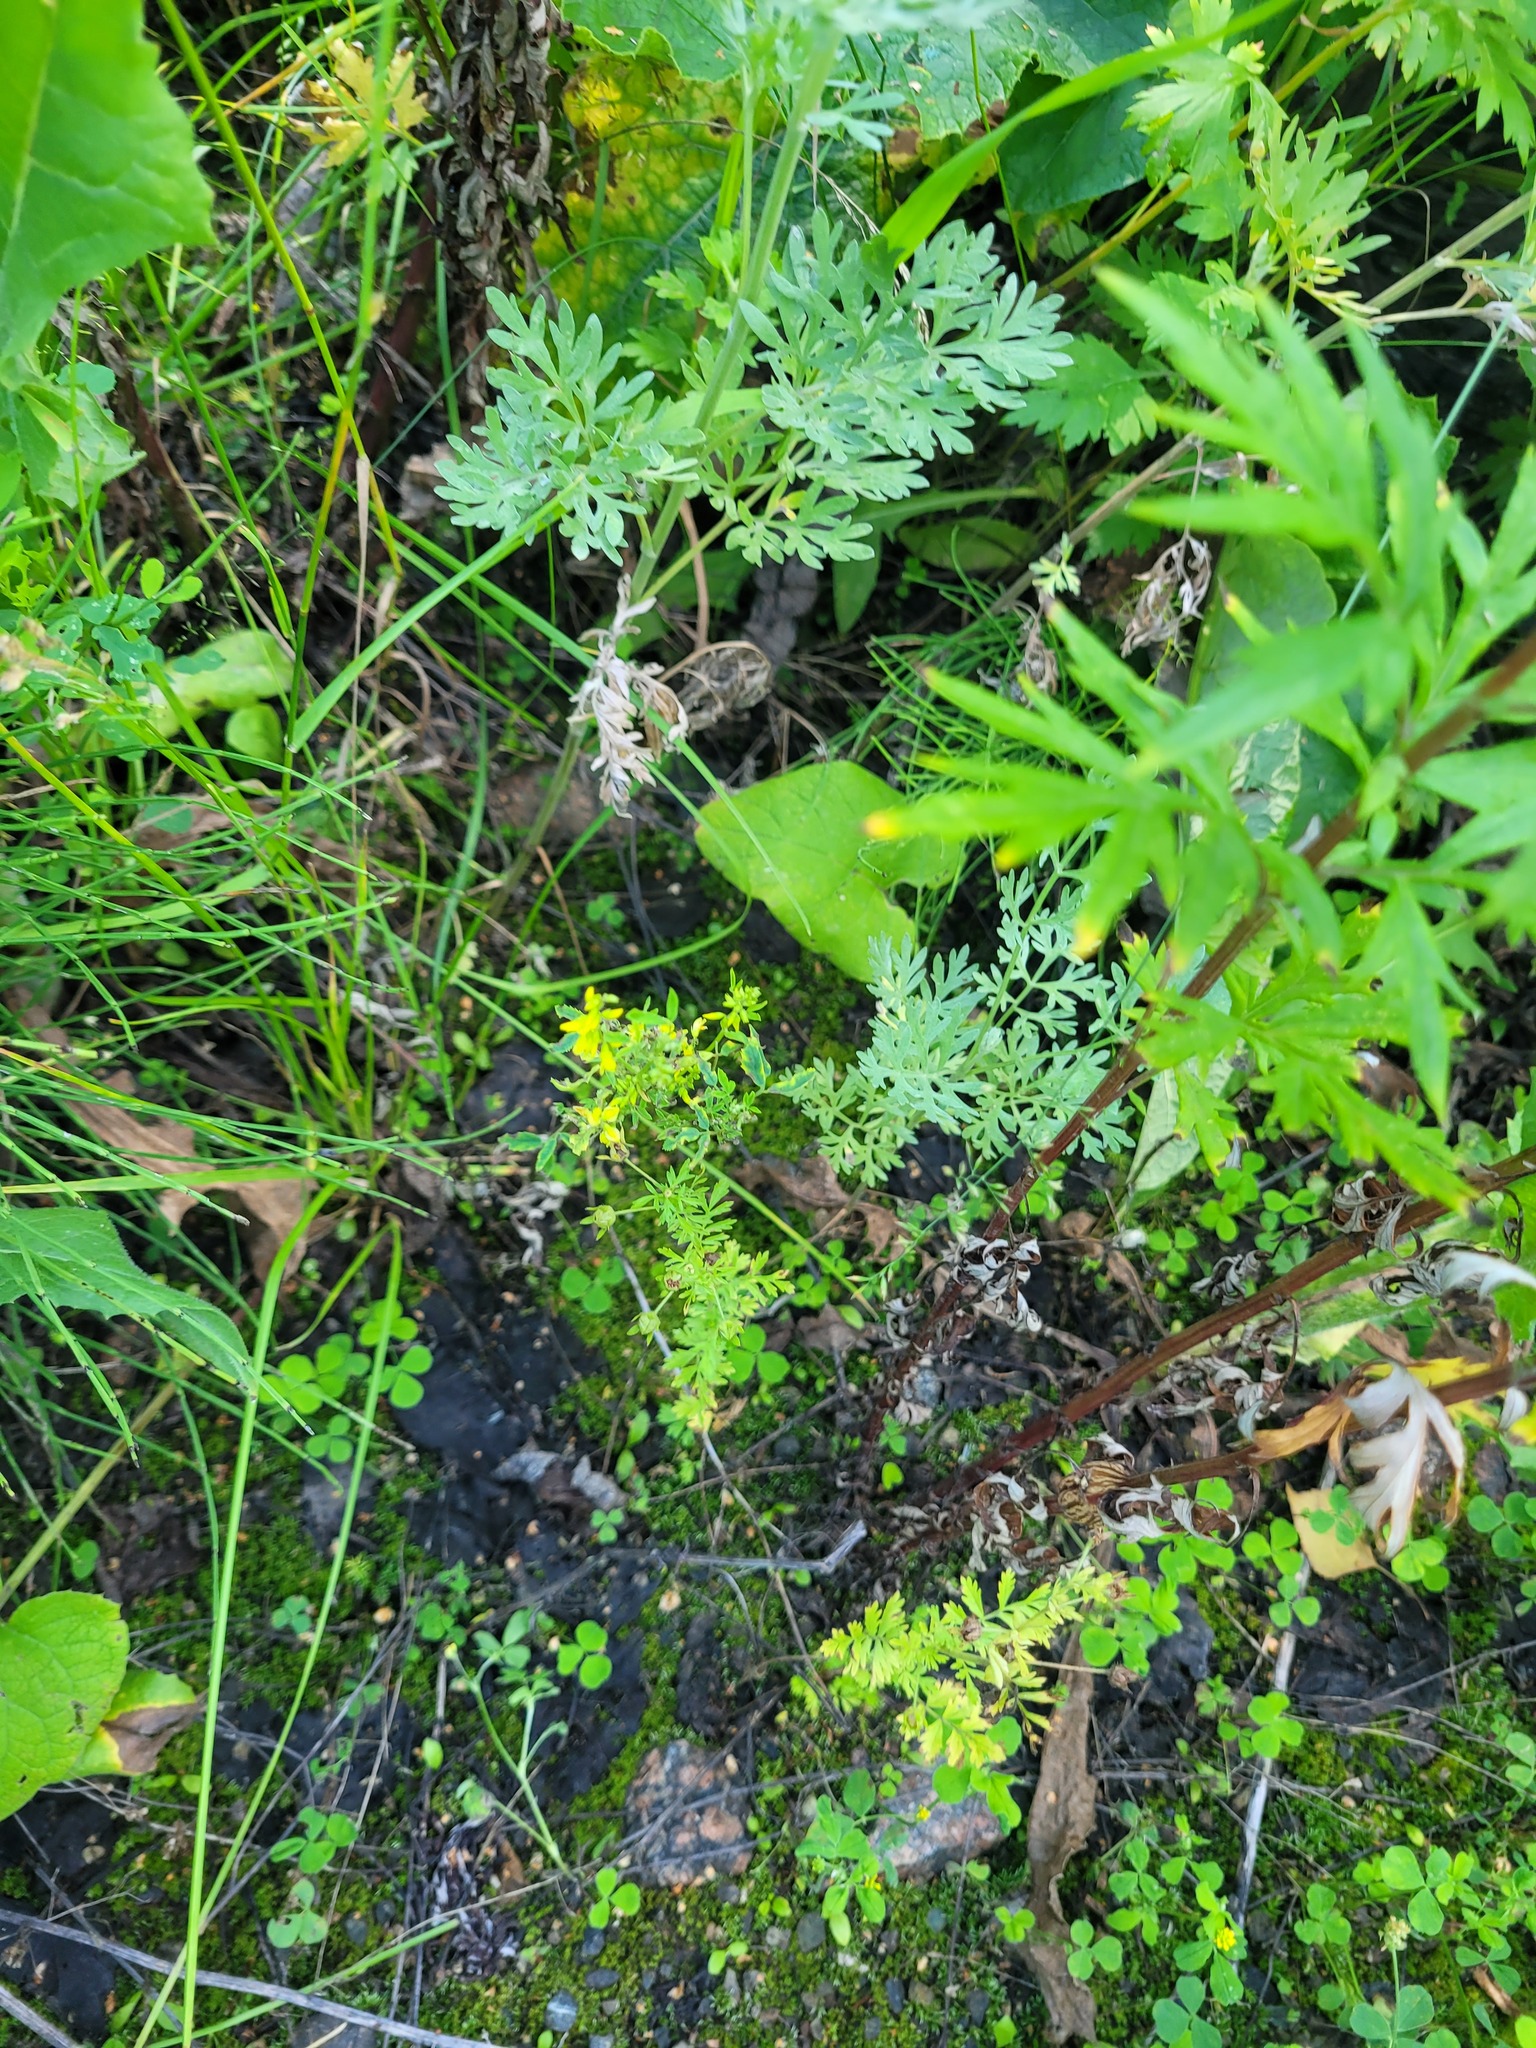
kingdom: Plantae
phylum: Tracheophyta
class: Magnoliopsida
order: Fabales
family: Fabaceae
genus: Melilotus
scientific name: Melilotus officinalis
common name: Sweetclover
